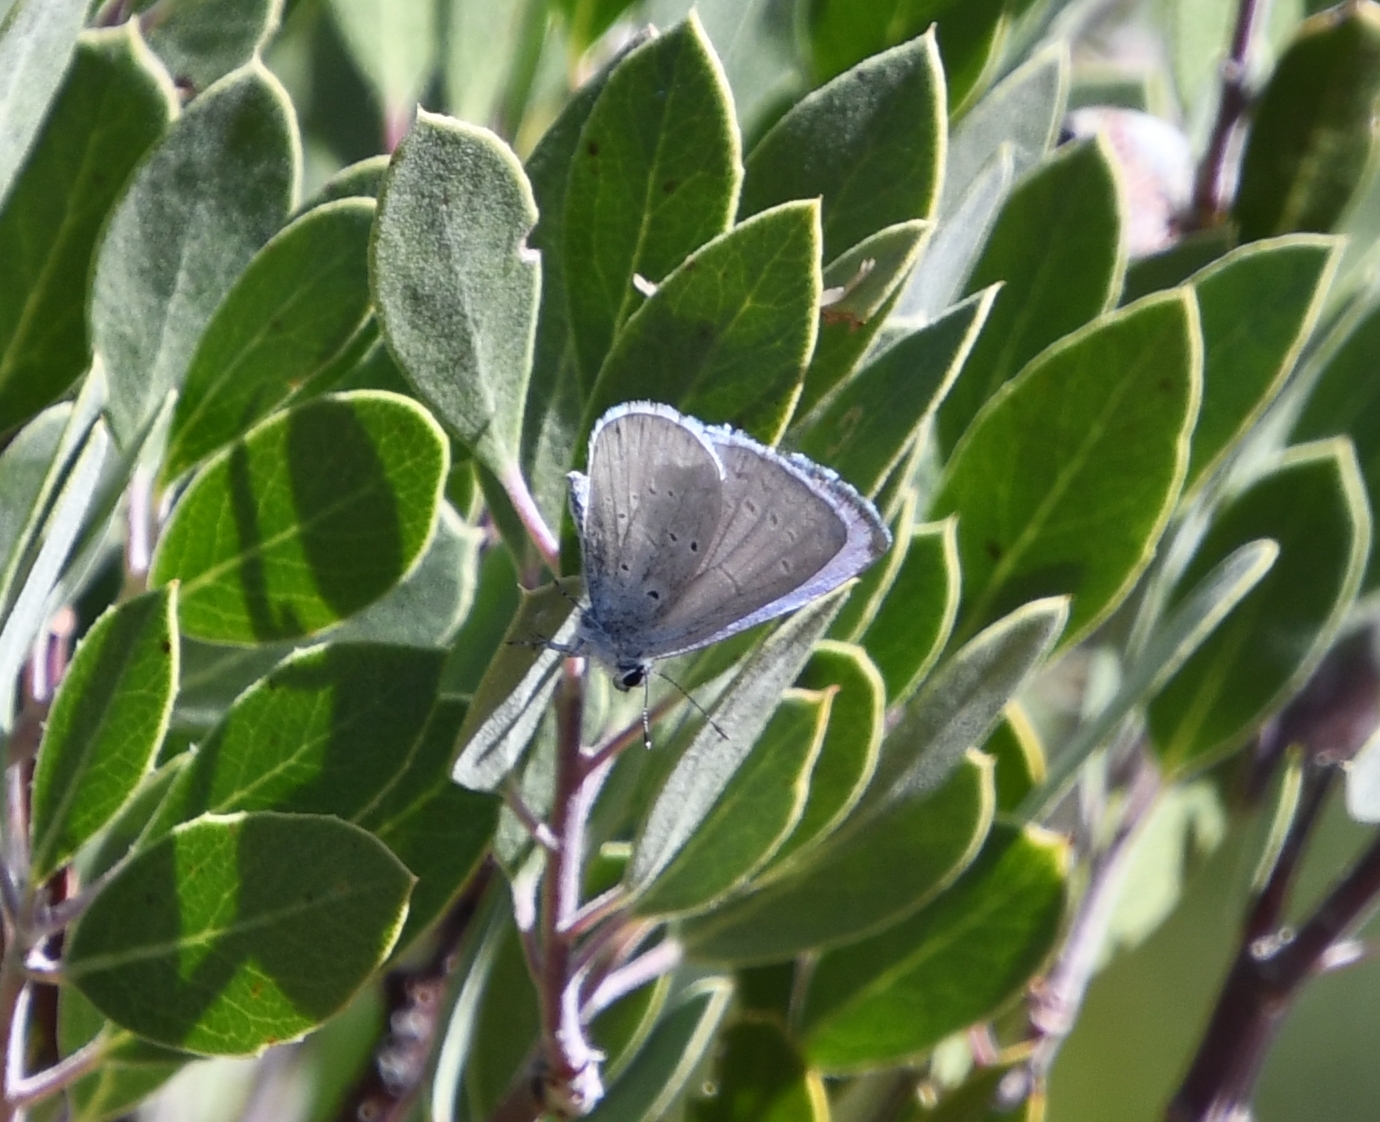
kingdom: Animalia
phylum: Arthropoda
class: Insecta
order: Lepidoptera
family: Lycaenidae
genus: Celastrina
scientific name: Celastrina ladon
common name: Spring azure
